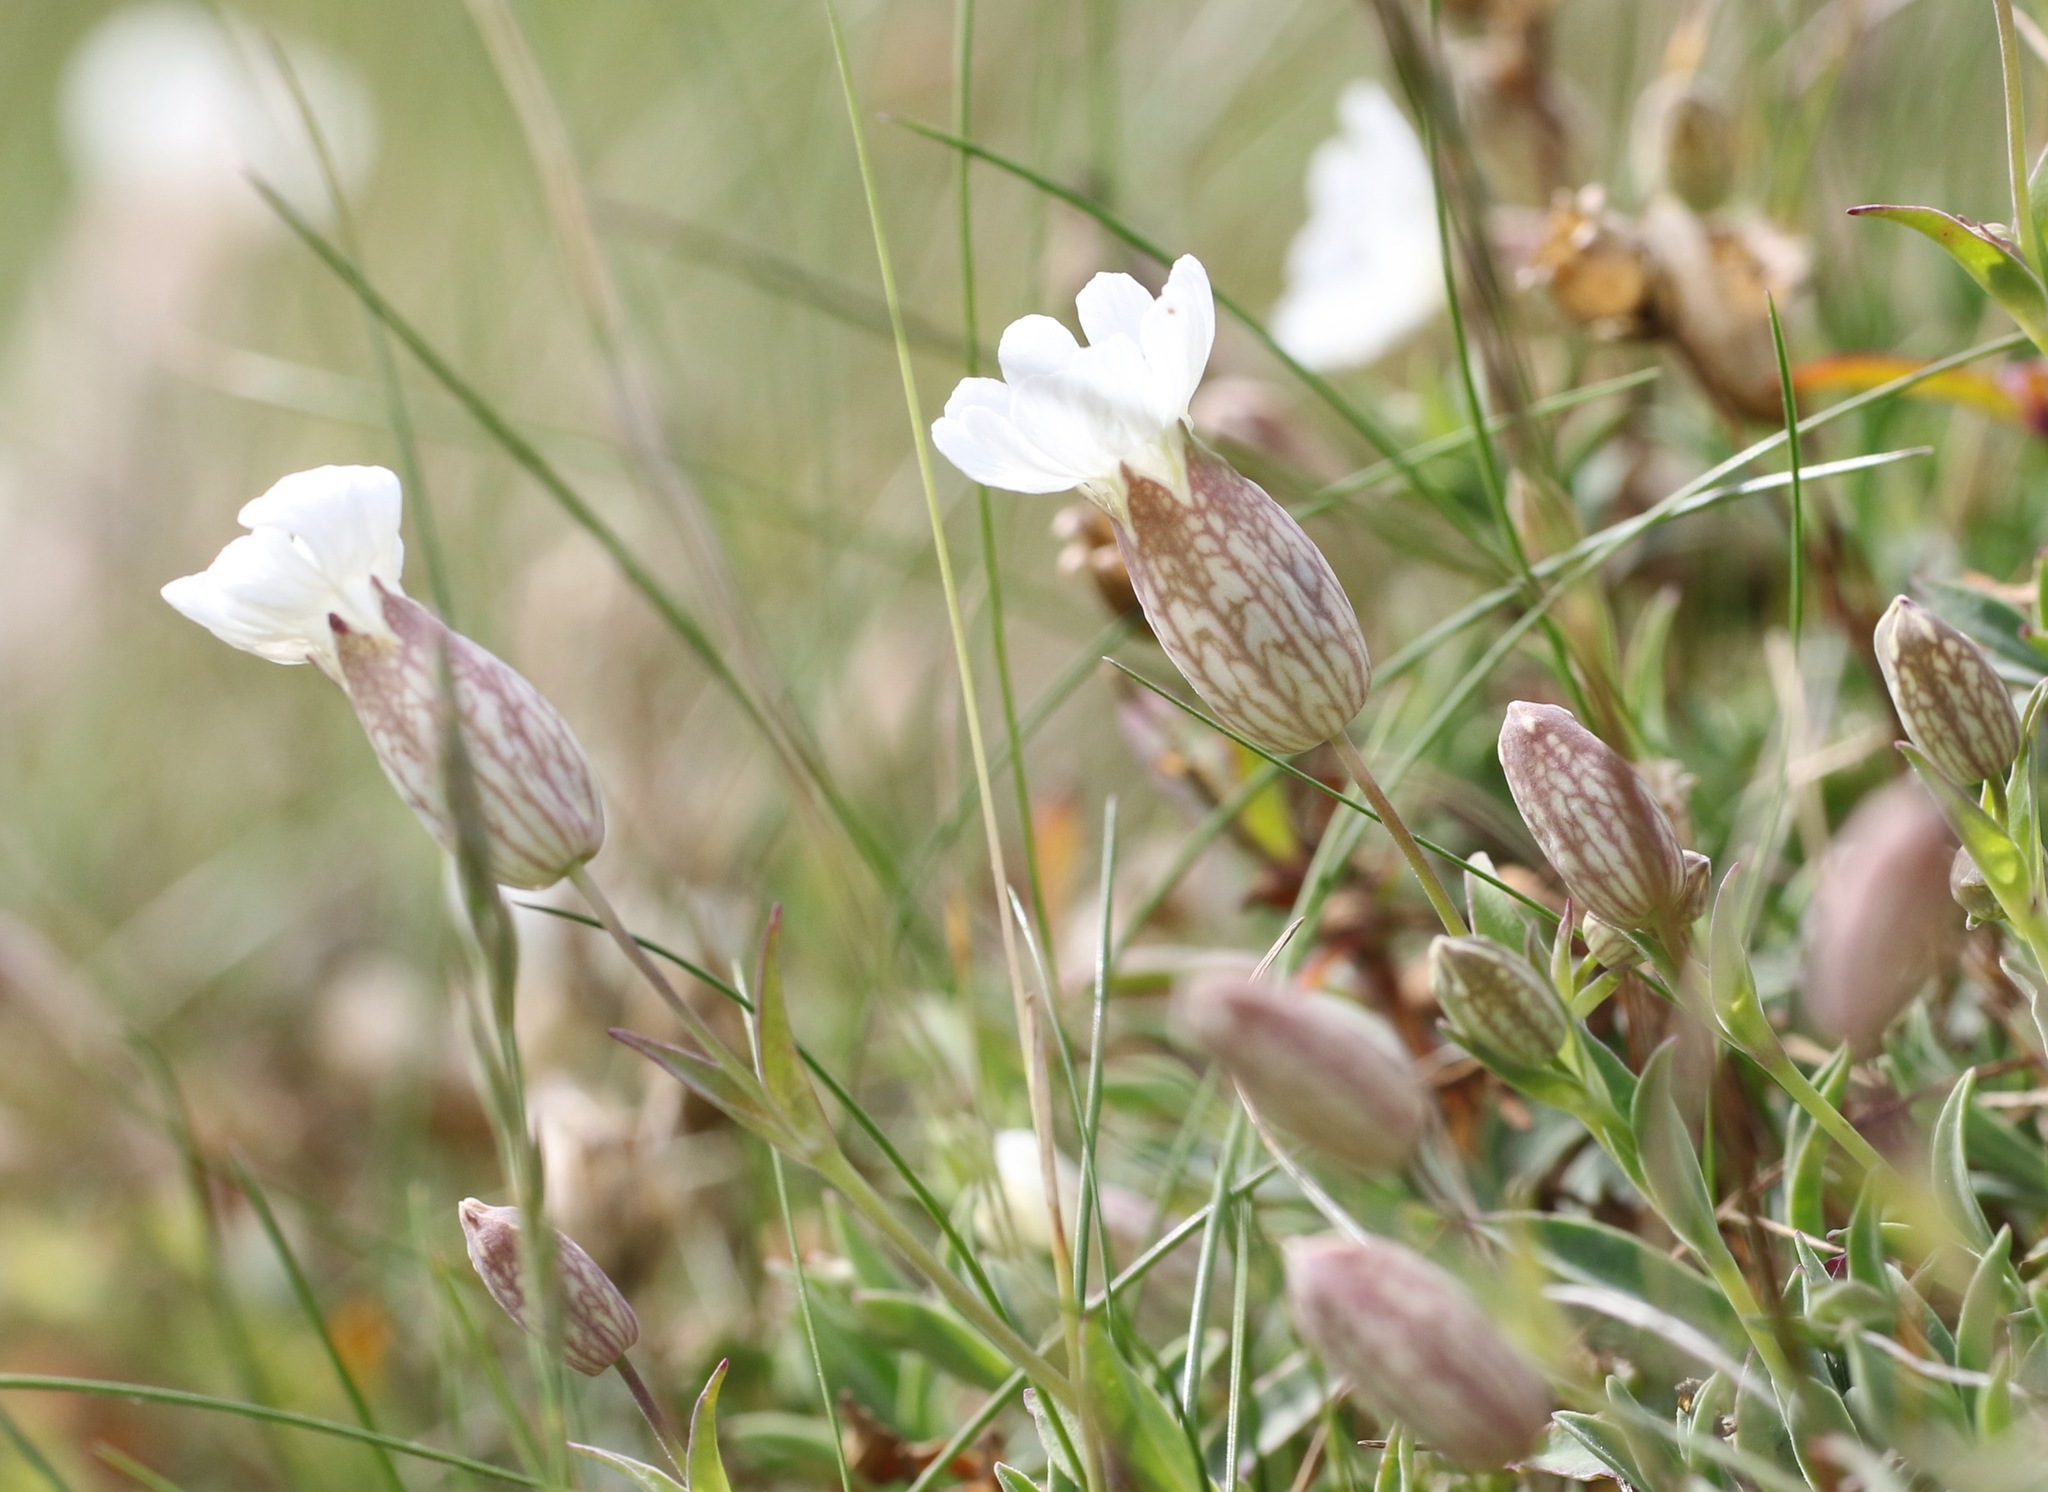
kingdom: Plantae
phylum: Tracheophyta
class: Magnoliopsida
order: Caryophyllales
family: Caryophyllaceae
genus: Silene
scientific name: Silene uniflora
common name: Sea campion
